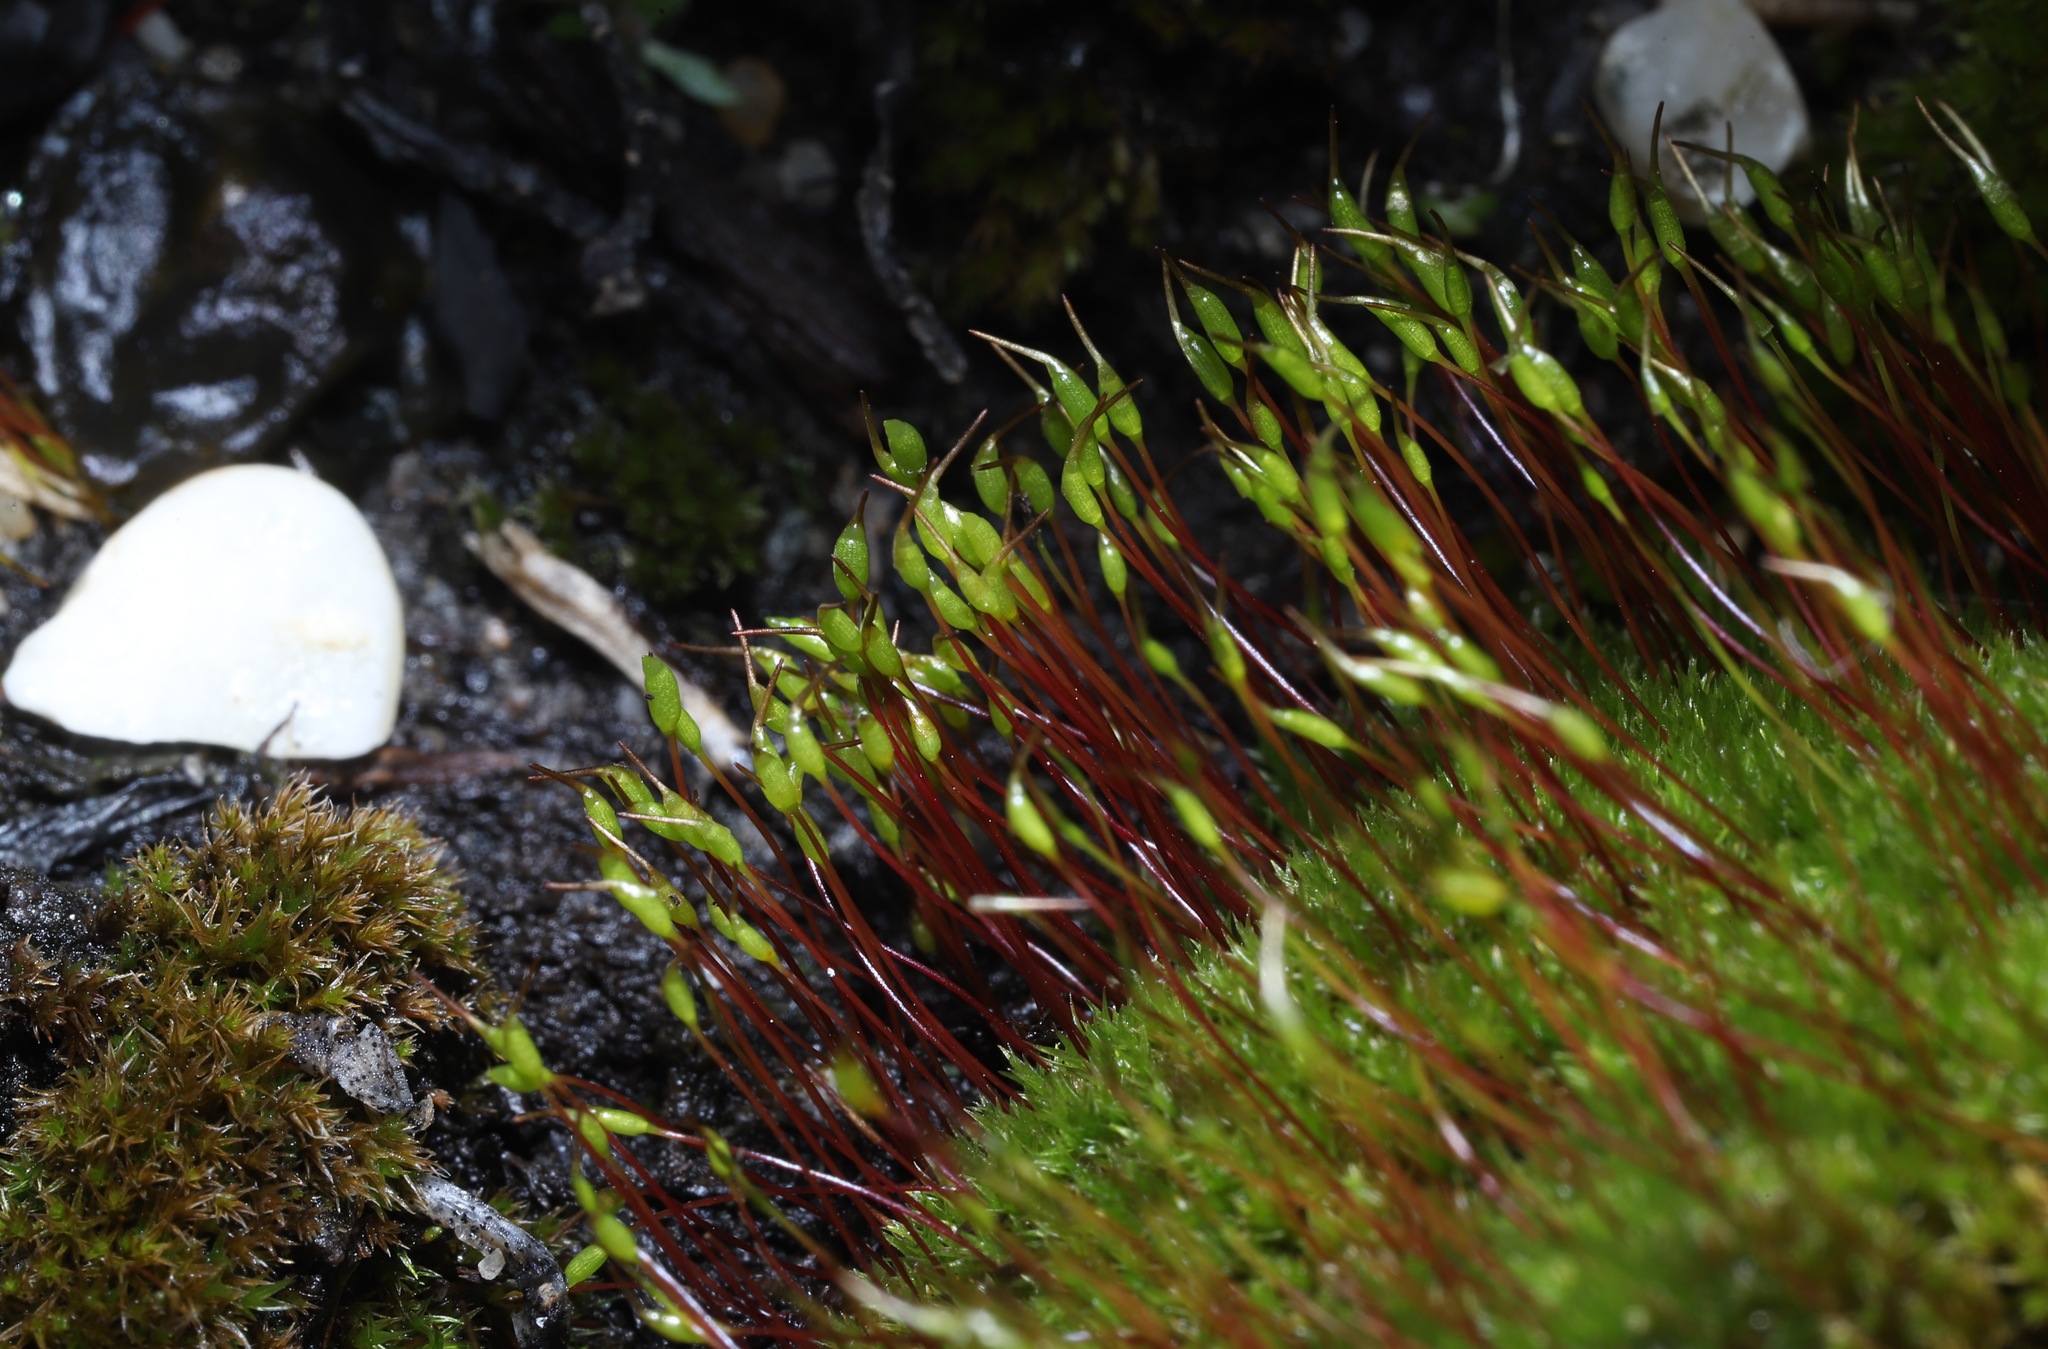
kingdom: Plantae
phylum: Bryophyta
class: Bryopsida
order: Dicranales
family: Ditrichaceae
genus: Ceratodon
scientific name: Ceratodon purpureus
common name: Redshank
